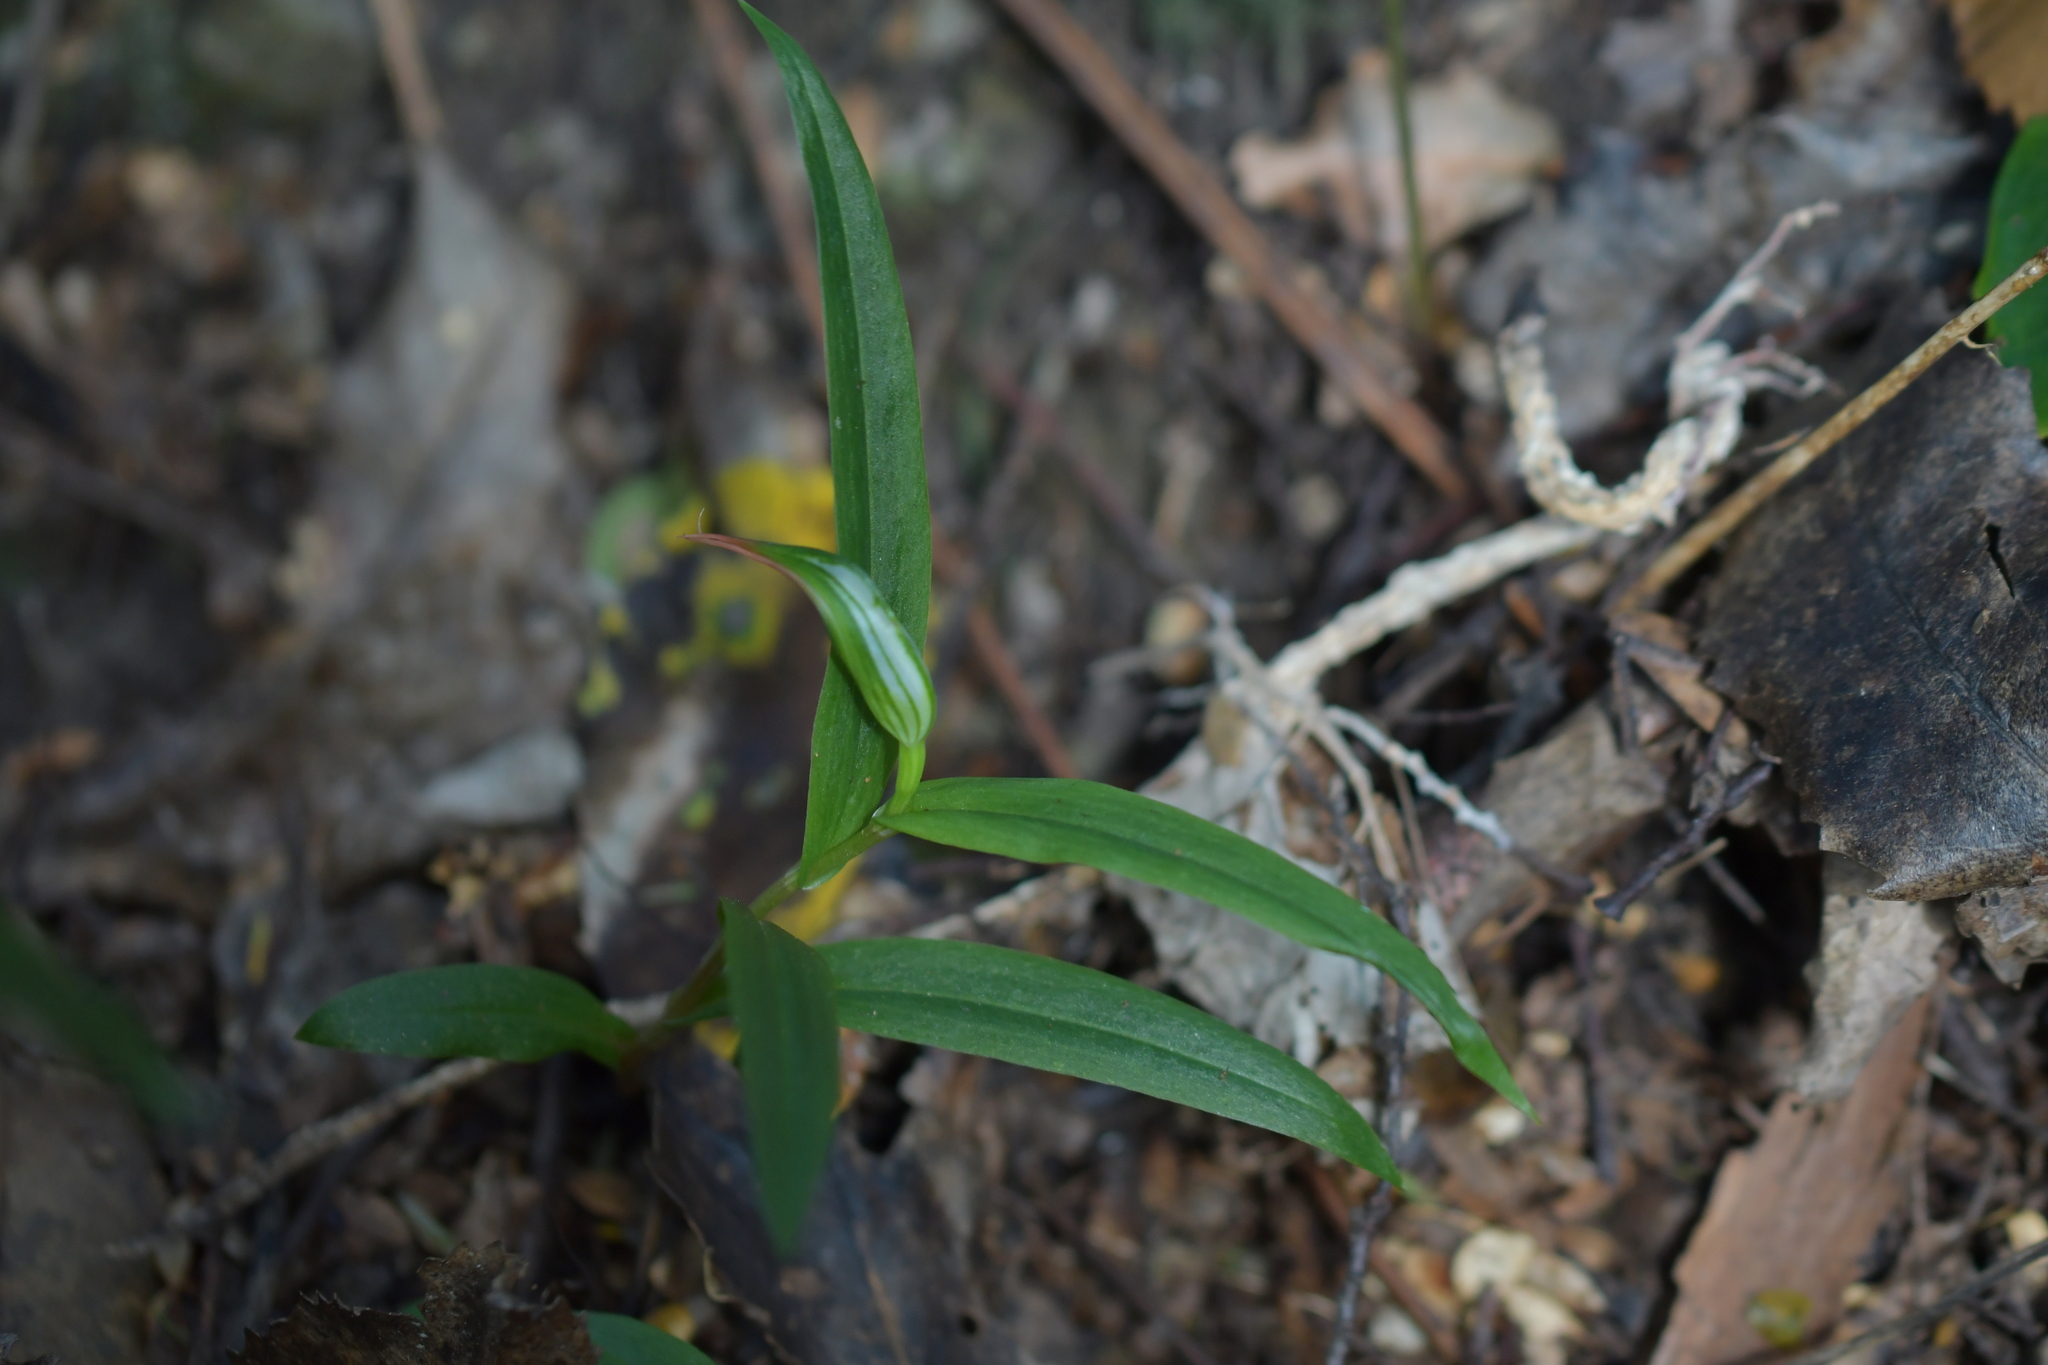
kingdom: Plantae
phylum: Tracheophyta
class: Liliopsida
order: Asparagales
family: Orchidaceae
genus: Pterostylis
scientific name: Pterostylis banksii
